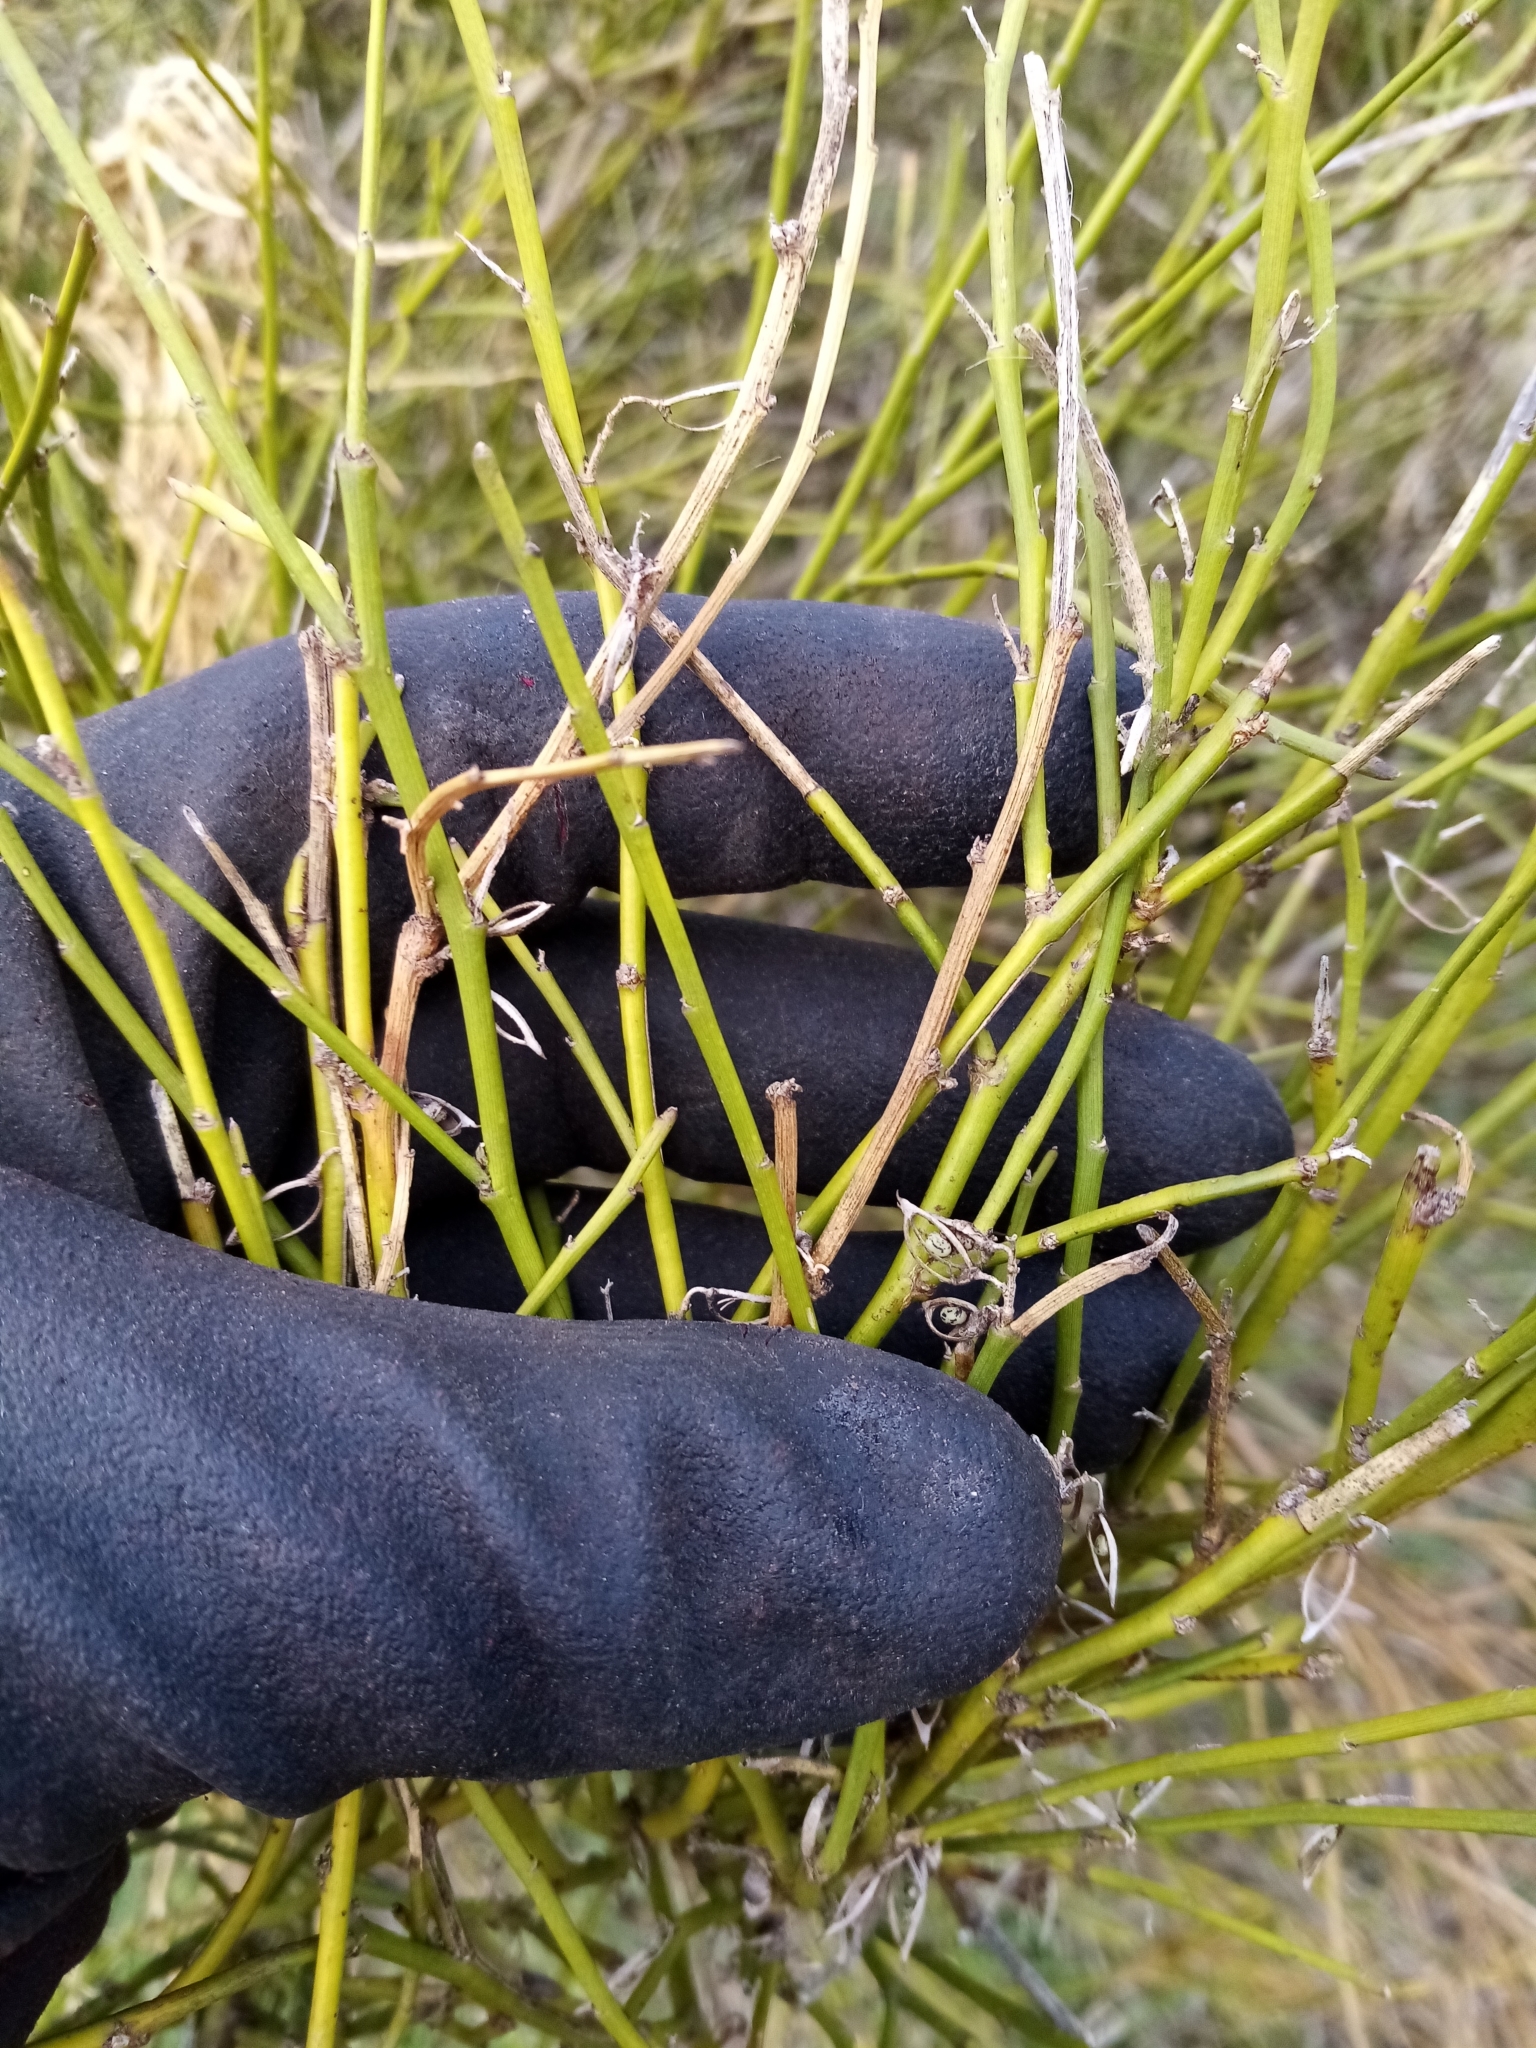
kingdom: Plantae
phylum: Tracheophyta
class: Magnoliopsida
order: Fabales
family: Fabaceae
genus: Carmichaelia
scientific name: Carmichaelia australis
